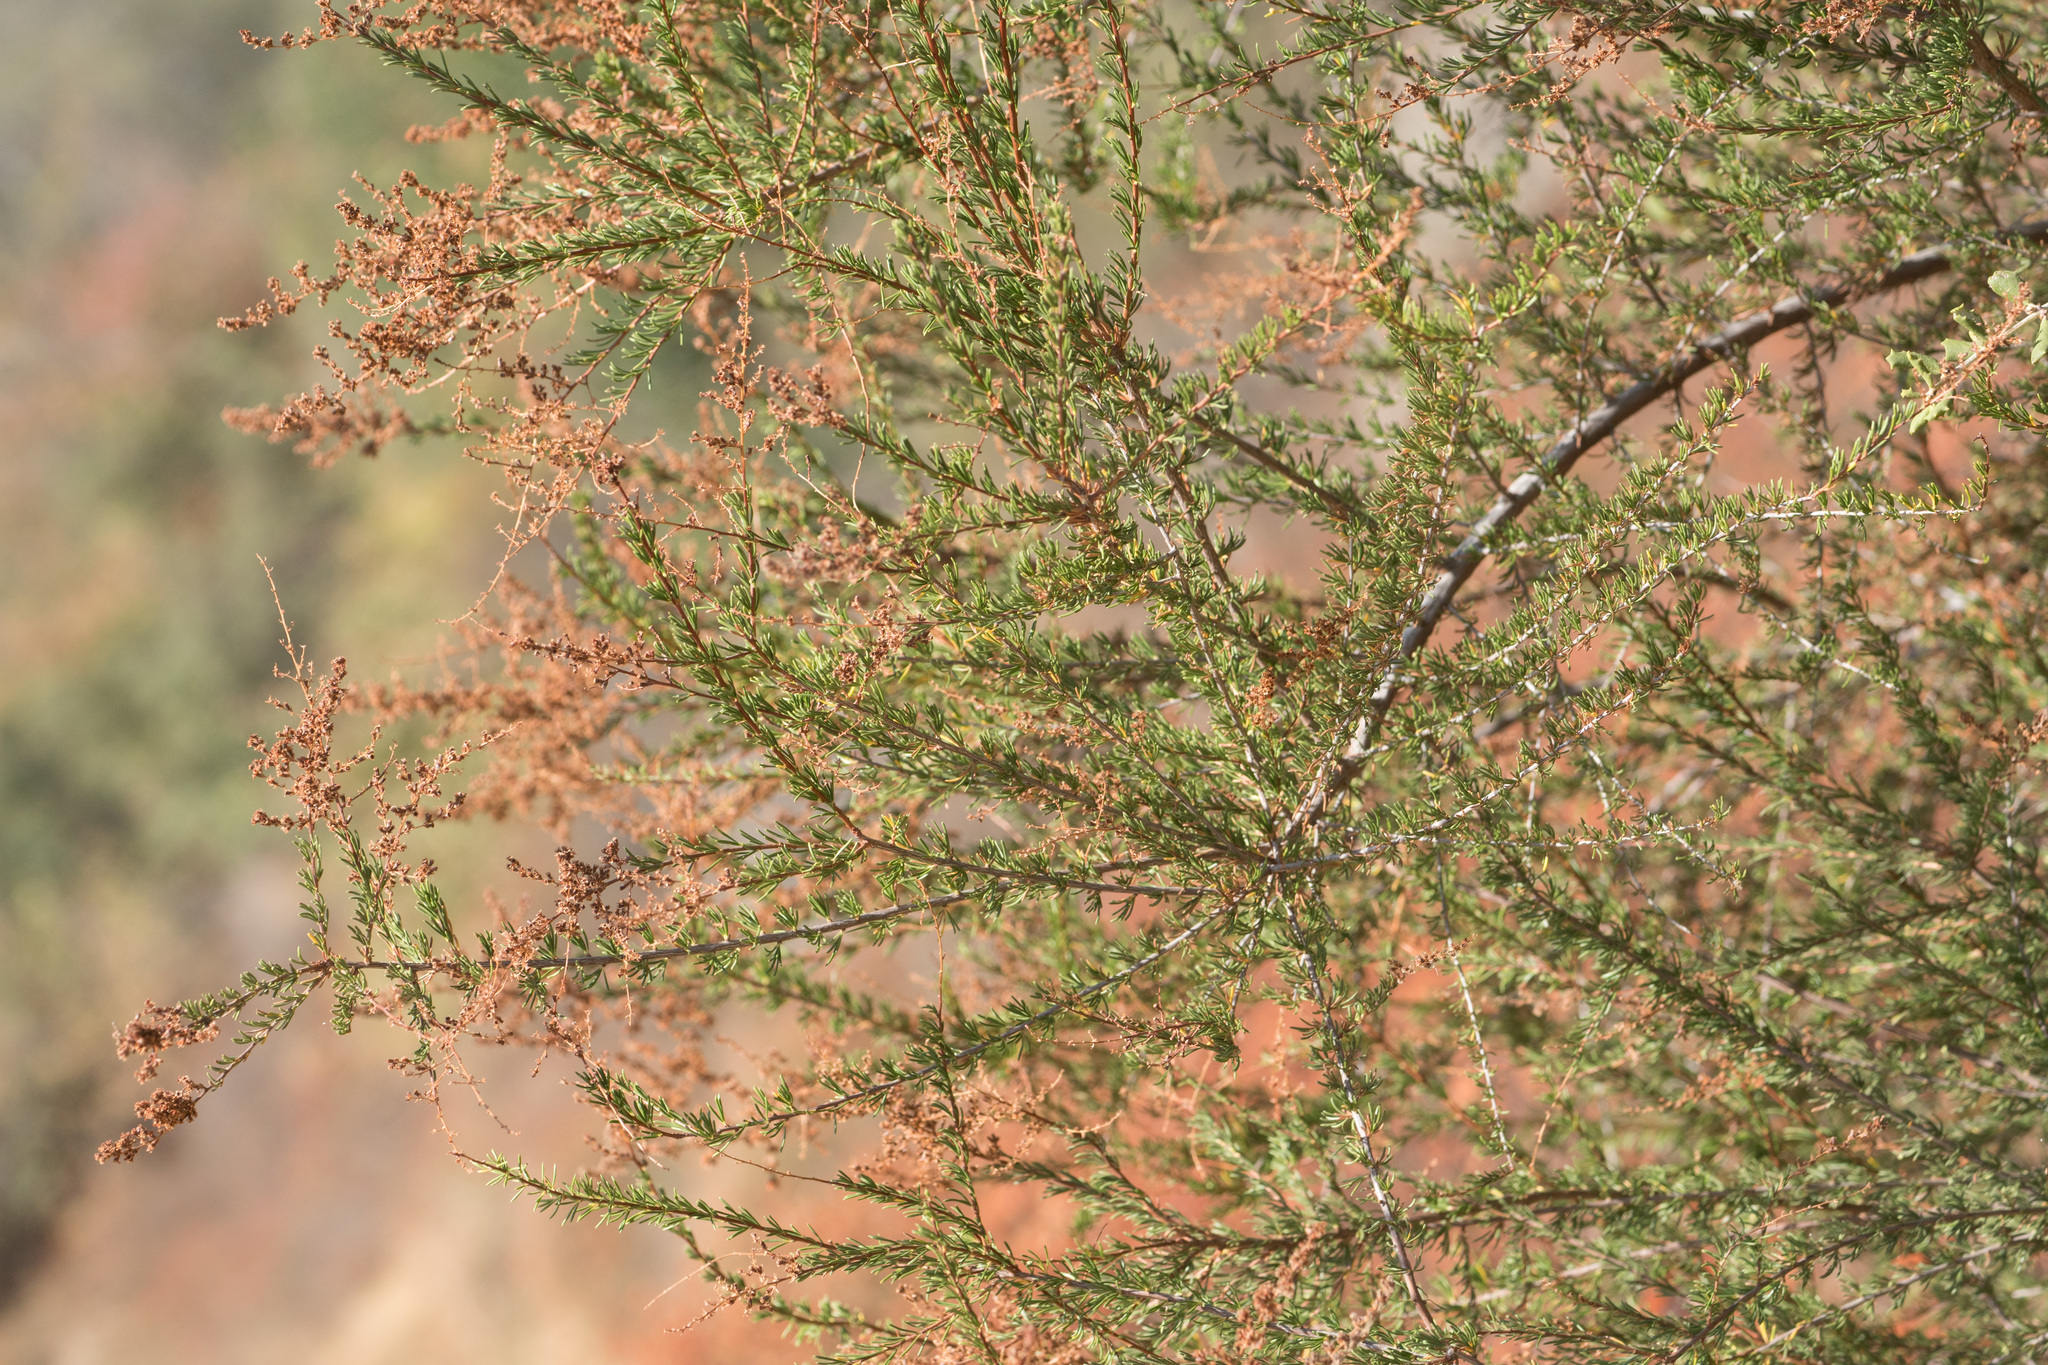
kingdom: Plantae
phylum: Tracheophyta
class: Magnoliopsida
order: Rosales
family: Rosaceae
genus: Adenostoma
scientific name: Adenostoma fasciculatum
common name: Chamise
